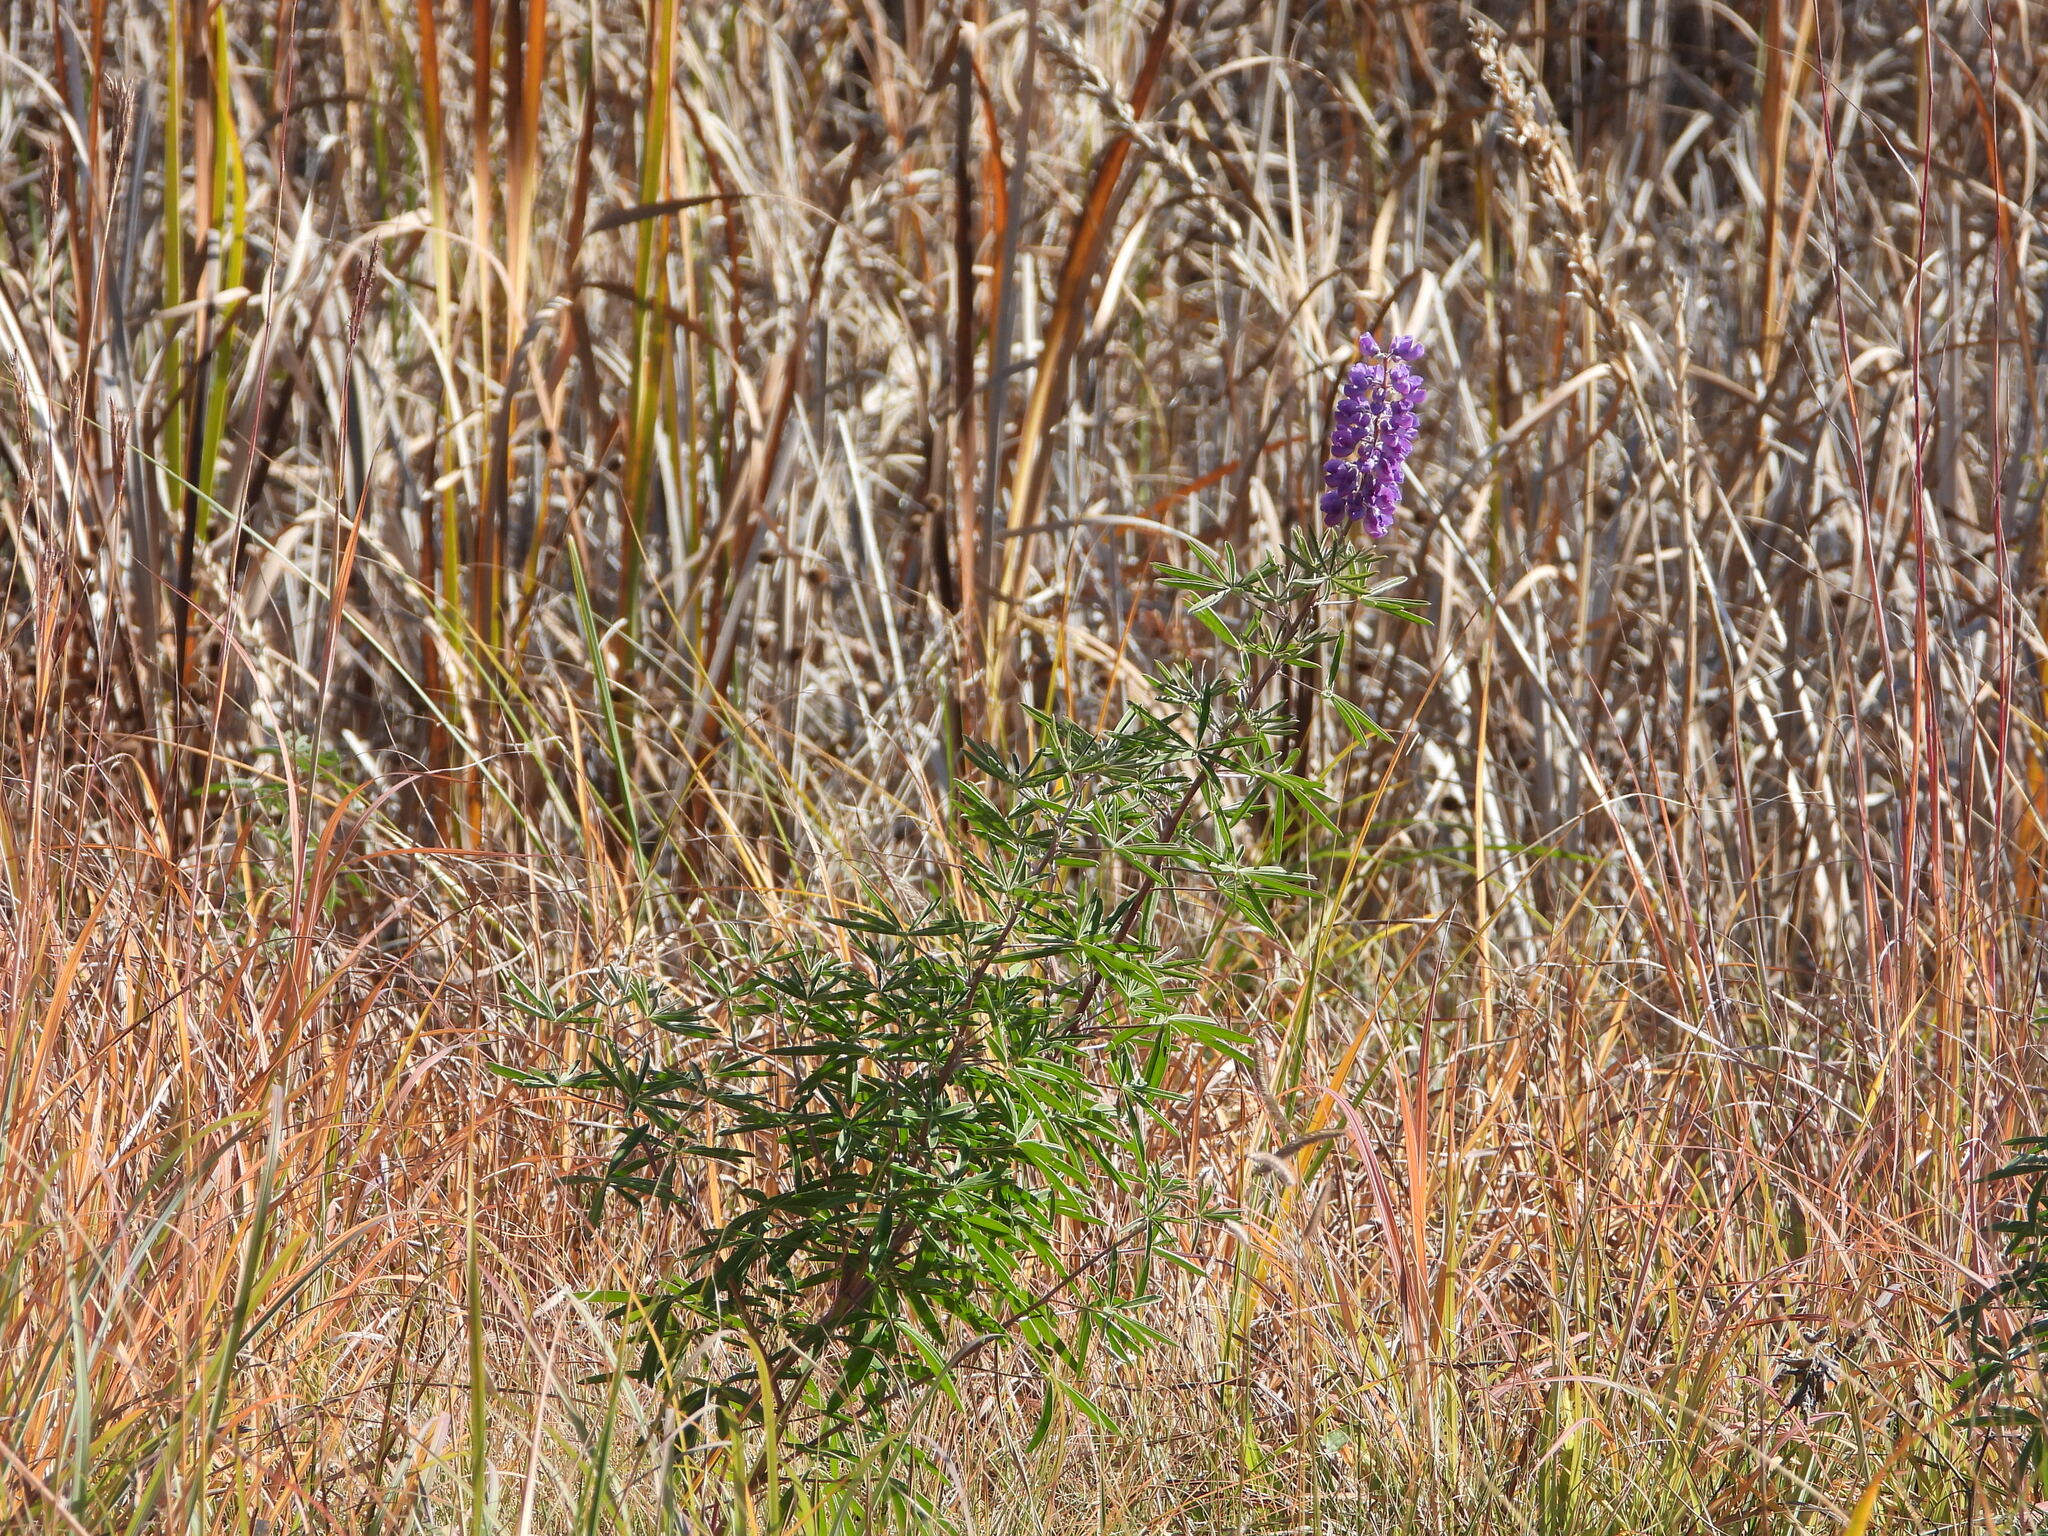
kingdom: Plantae
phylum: Tracheophyta
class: Magnoliopsida
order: Fabales
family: Fabaceae
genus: Lupinus
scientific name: Lupinus argenteus
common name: Silvery lupine
